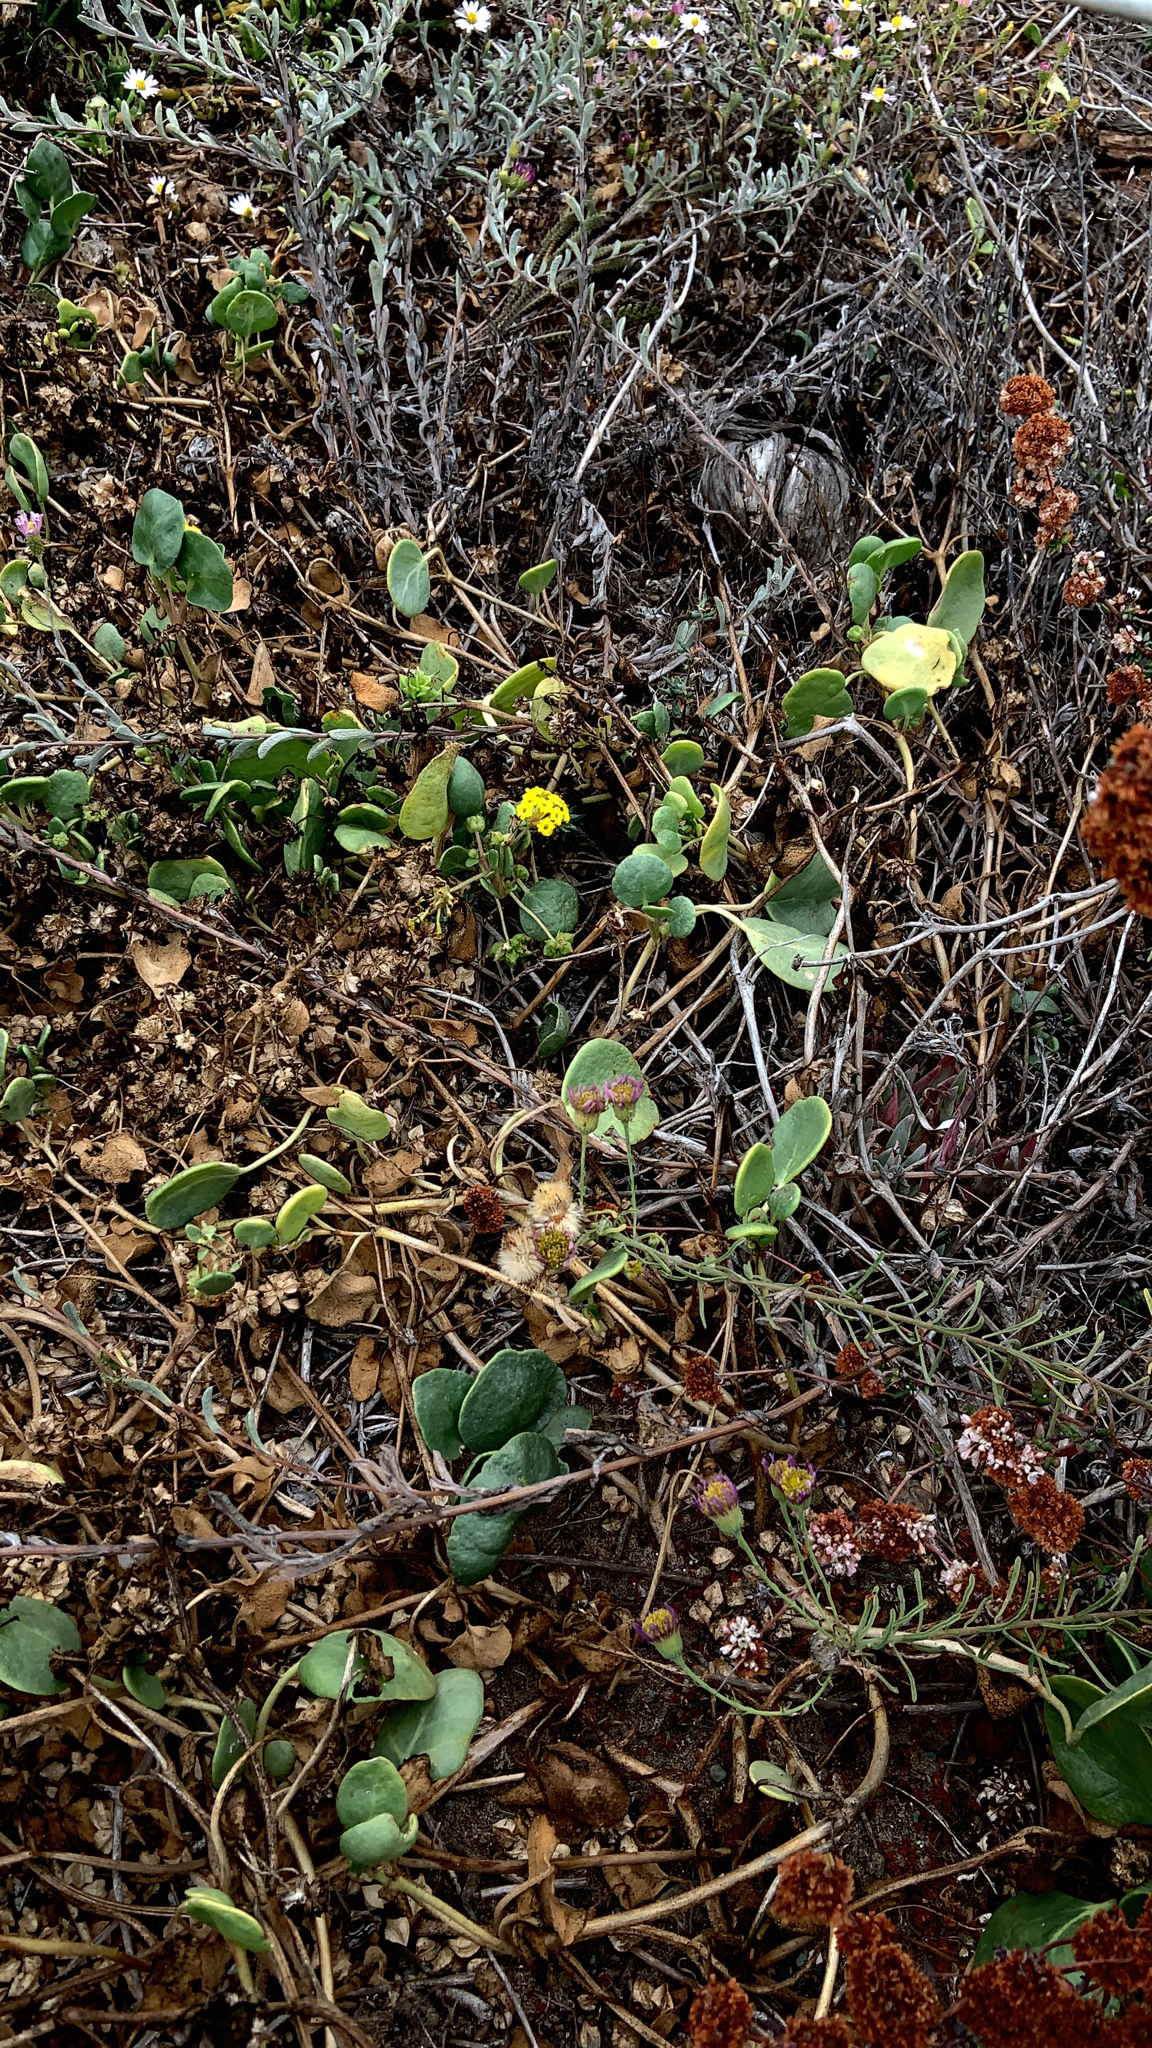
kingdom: Plantae
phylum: Tracheophyta
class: Magnoliopsida
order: Caryophyllales
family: Nyctaginaceae
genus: Abronia
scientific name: Abronia latifolia
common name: Yellow sand-verbena
